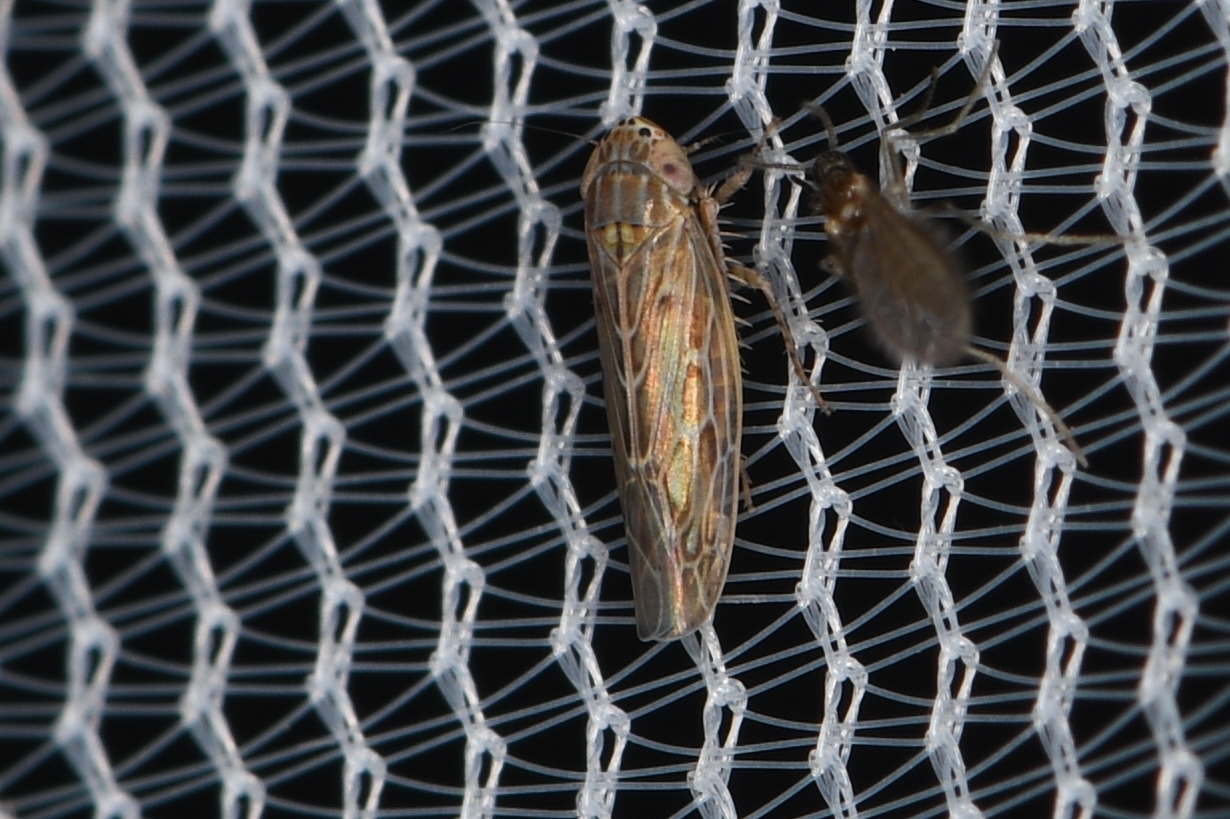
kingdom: Animalia
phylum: Arthropoda
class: Insecta
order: Hemiptera
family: Cicadellidae
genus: Graminella
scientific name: Graminella sonora
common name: Lesser lawn leafhopper
